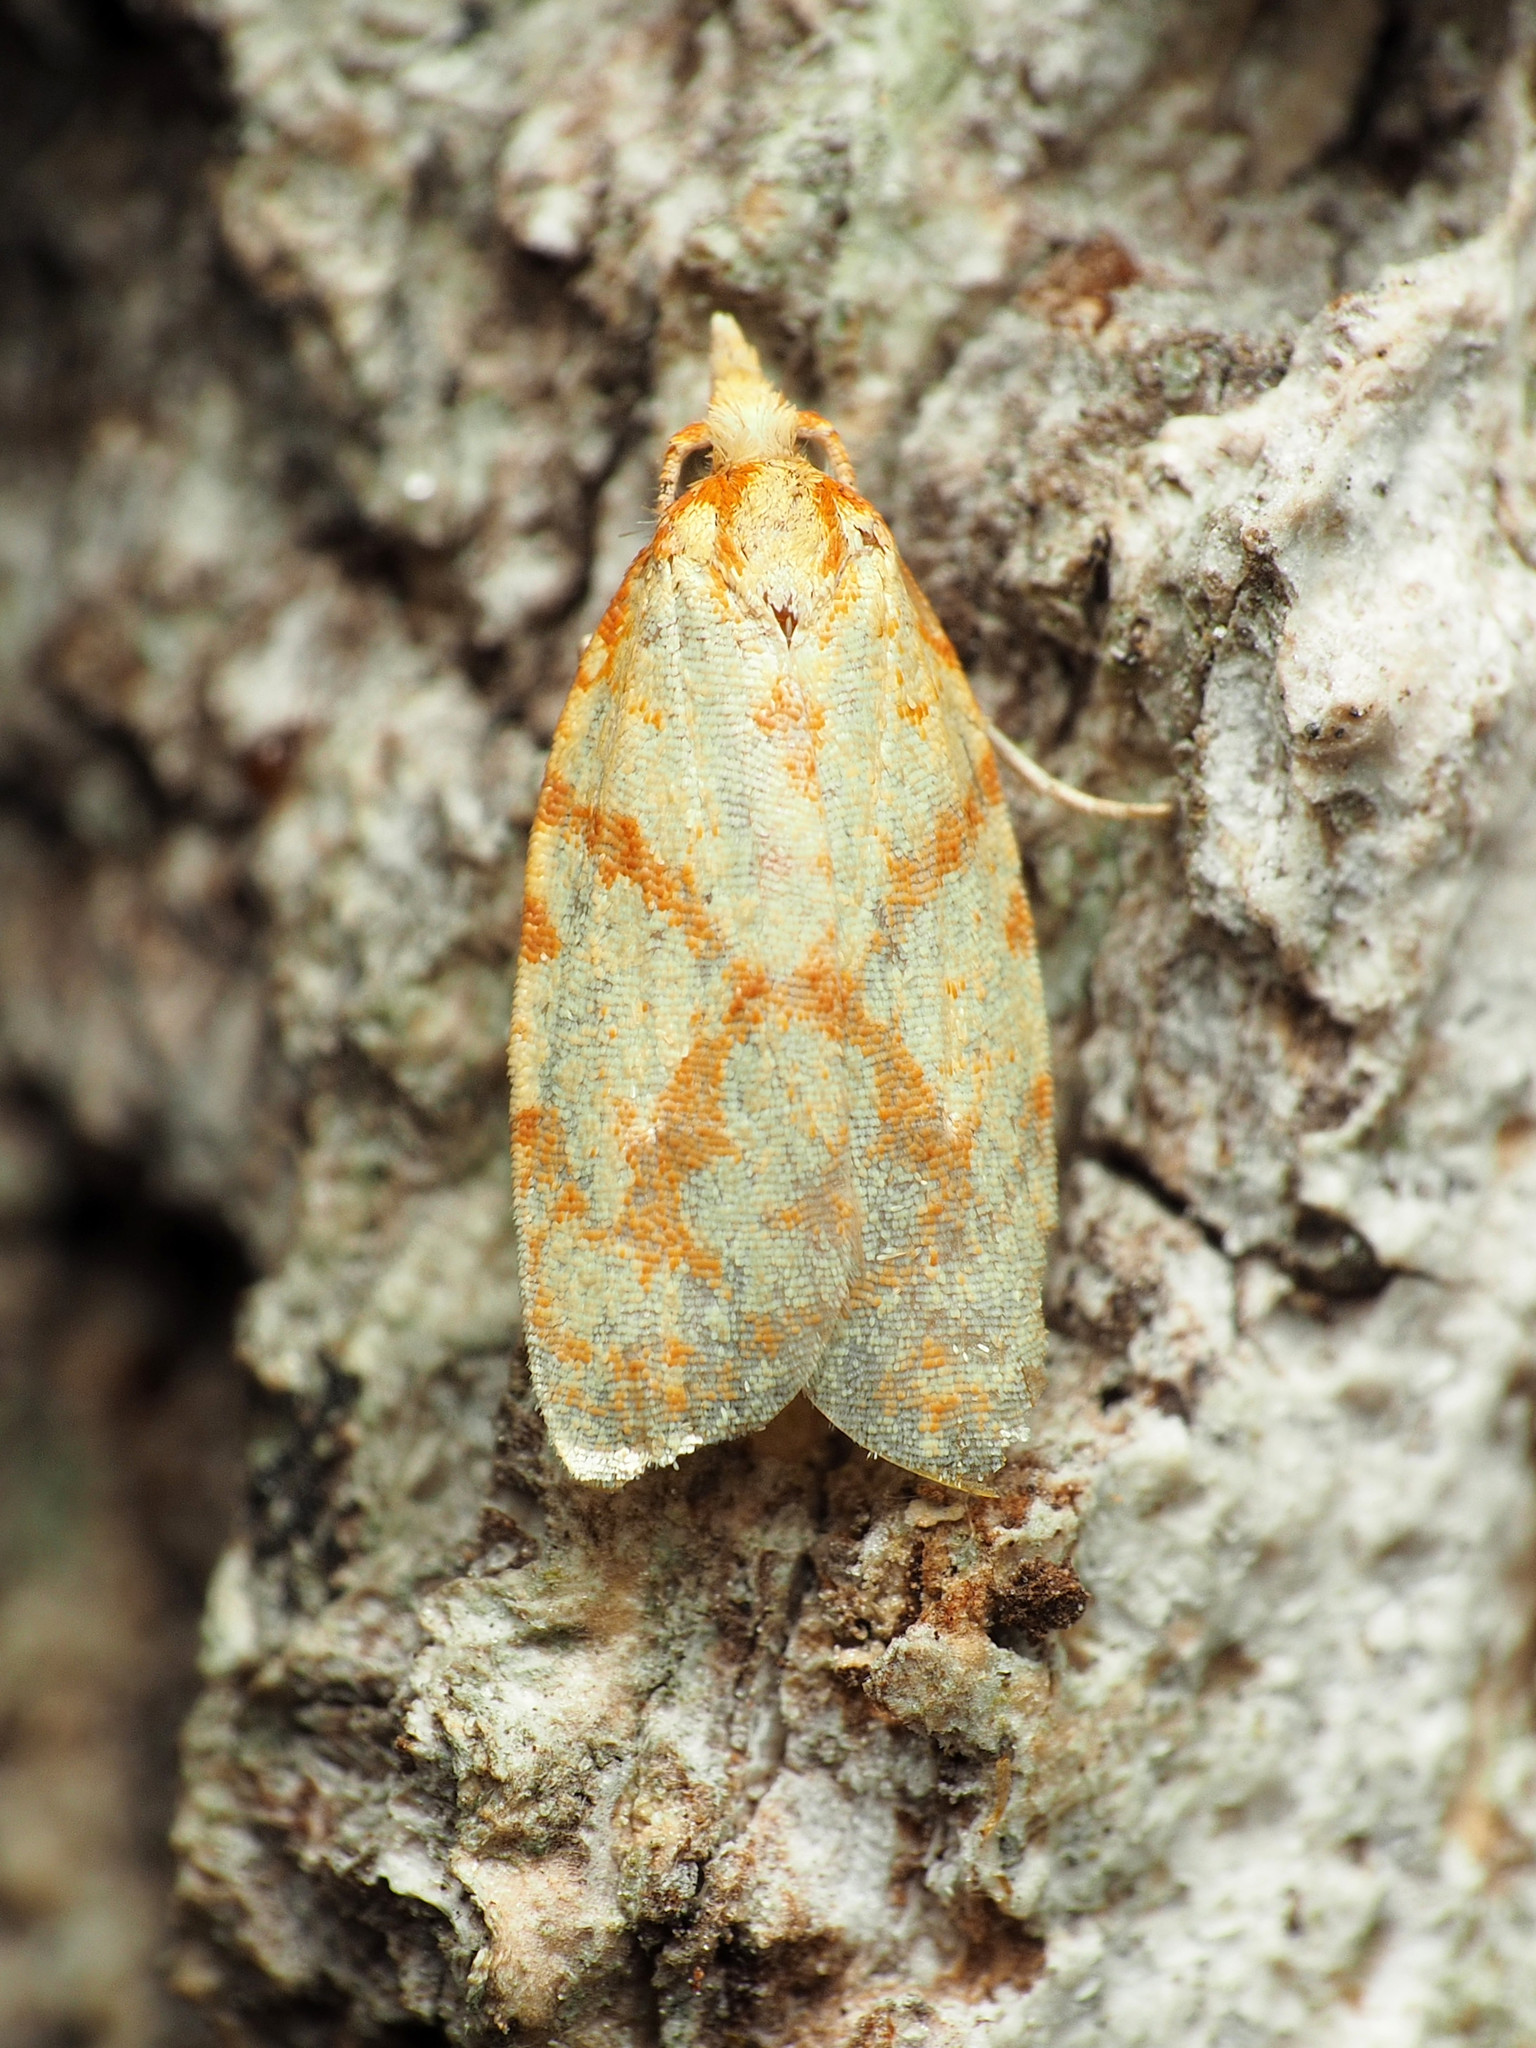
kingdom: Animalia
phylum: Arthropoda
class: Insecta
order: Lepidoptera
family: Tortricidae
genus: Sparganothis
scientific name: Sparganothis sulfureana
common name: Sparganothis fruitworm moth
